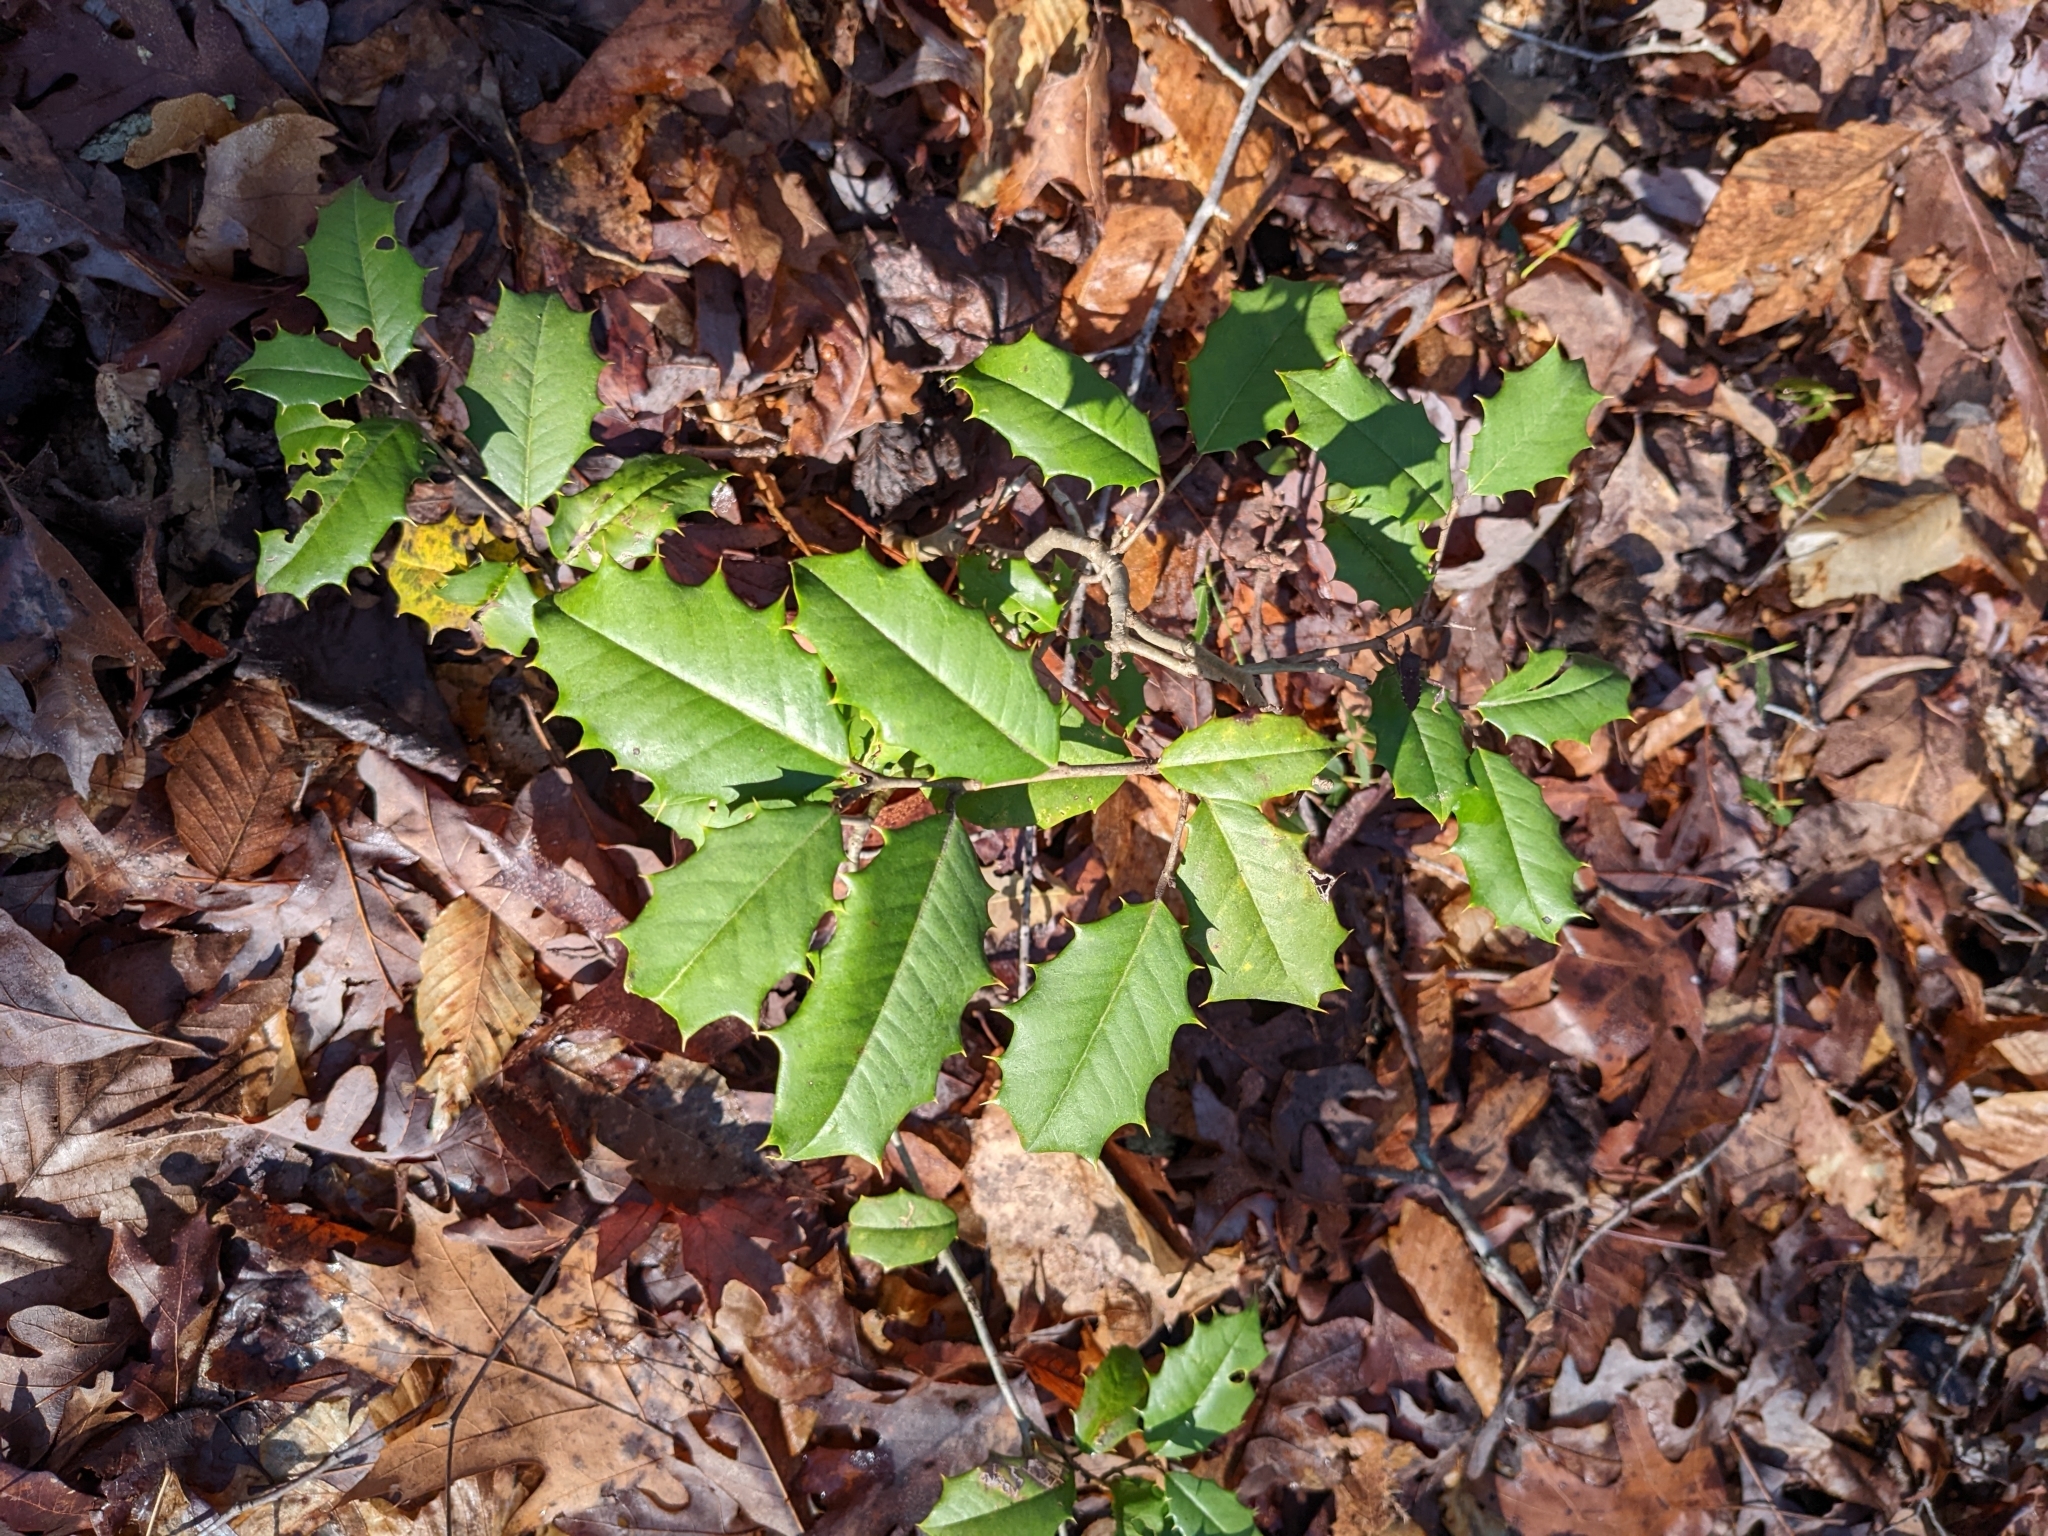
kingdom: Plantae
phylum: Tracheophyta
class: Magnoliopsida
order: Aquifoliales
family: Aquifoliaceae
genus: Ilex
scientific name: Ilex opaca
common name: American holly
